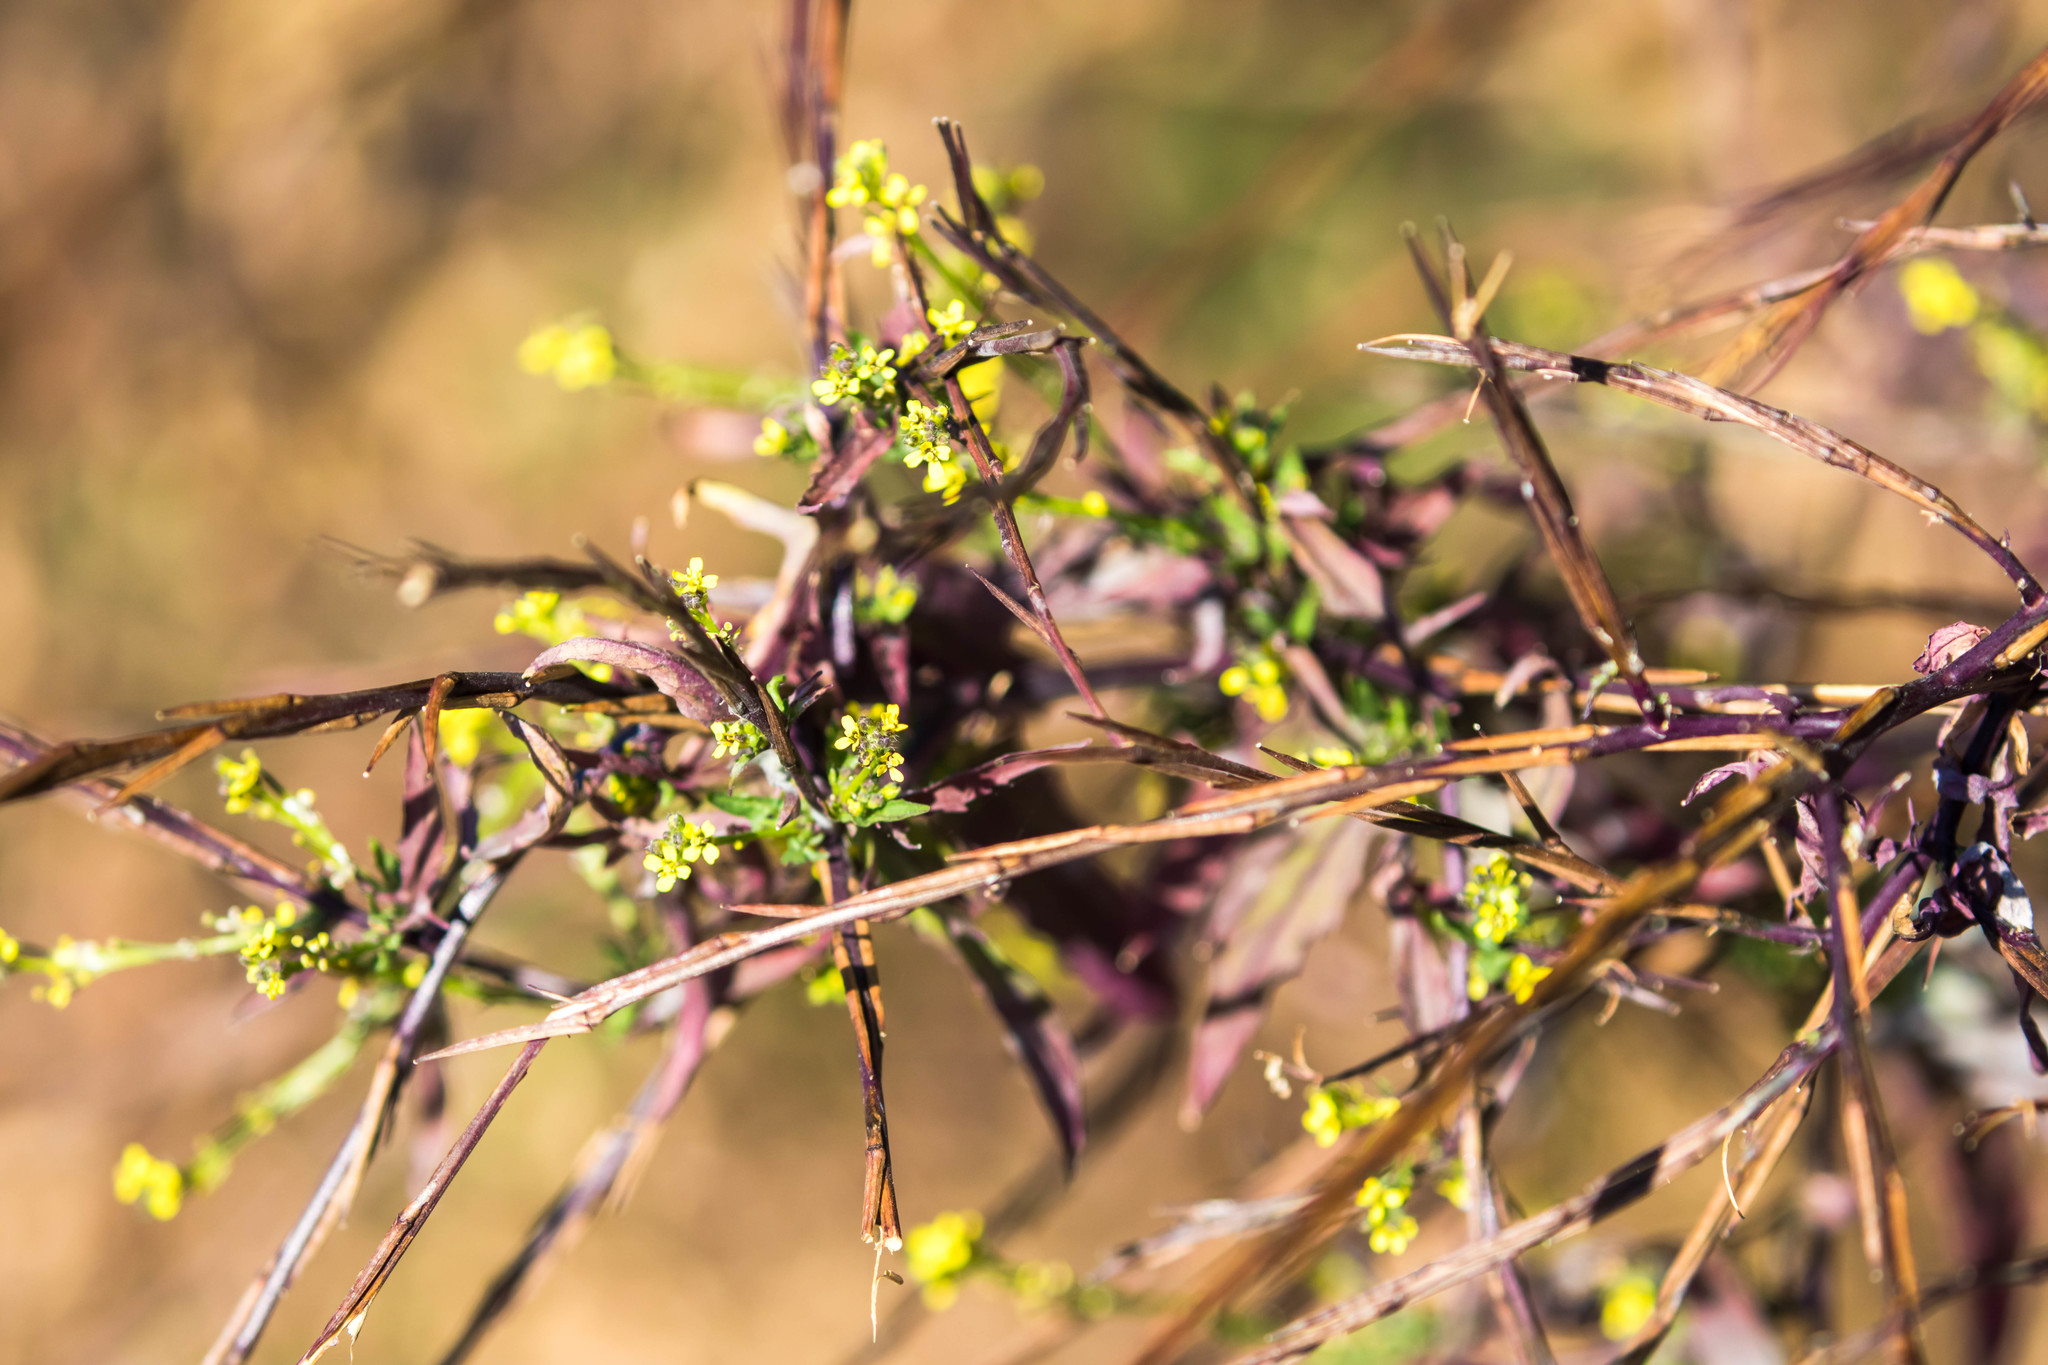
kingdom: Plantae
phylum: Tracheophyta
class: Magnoliopsida
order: Brassicales
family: Brassicaceae
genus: Sisymbrium
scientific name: Sisymbrium officinale
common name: Hedge mustard
